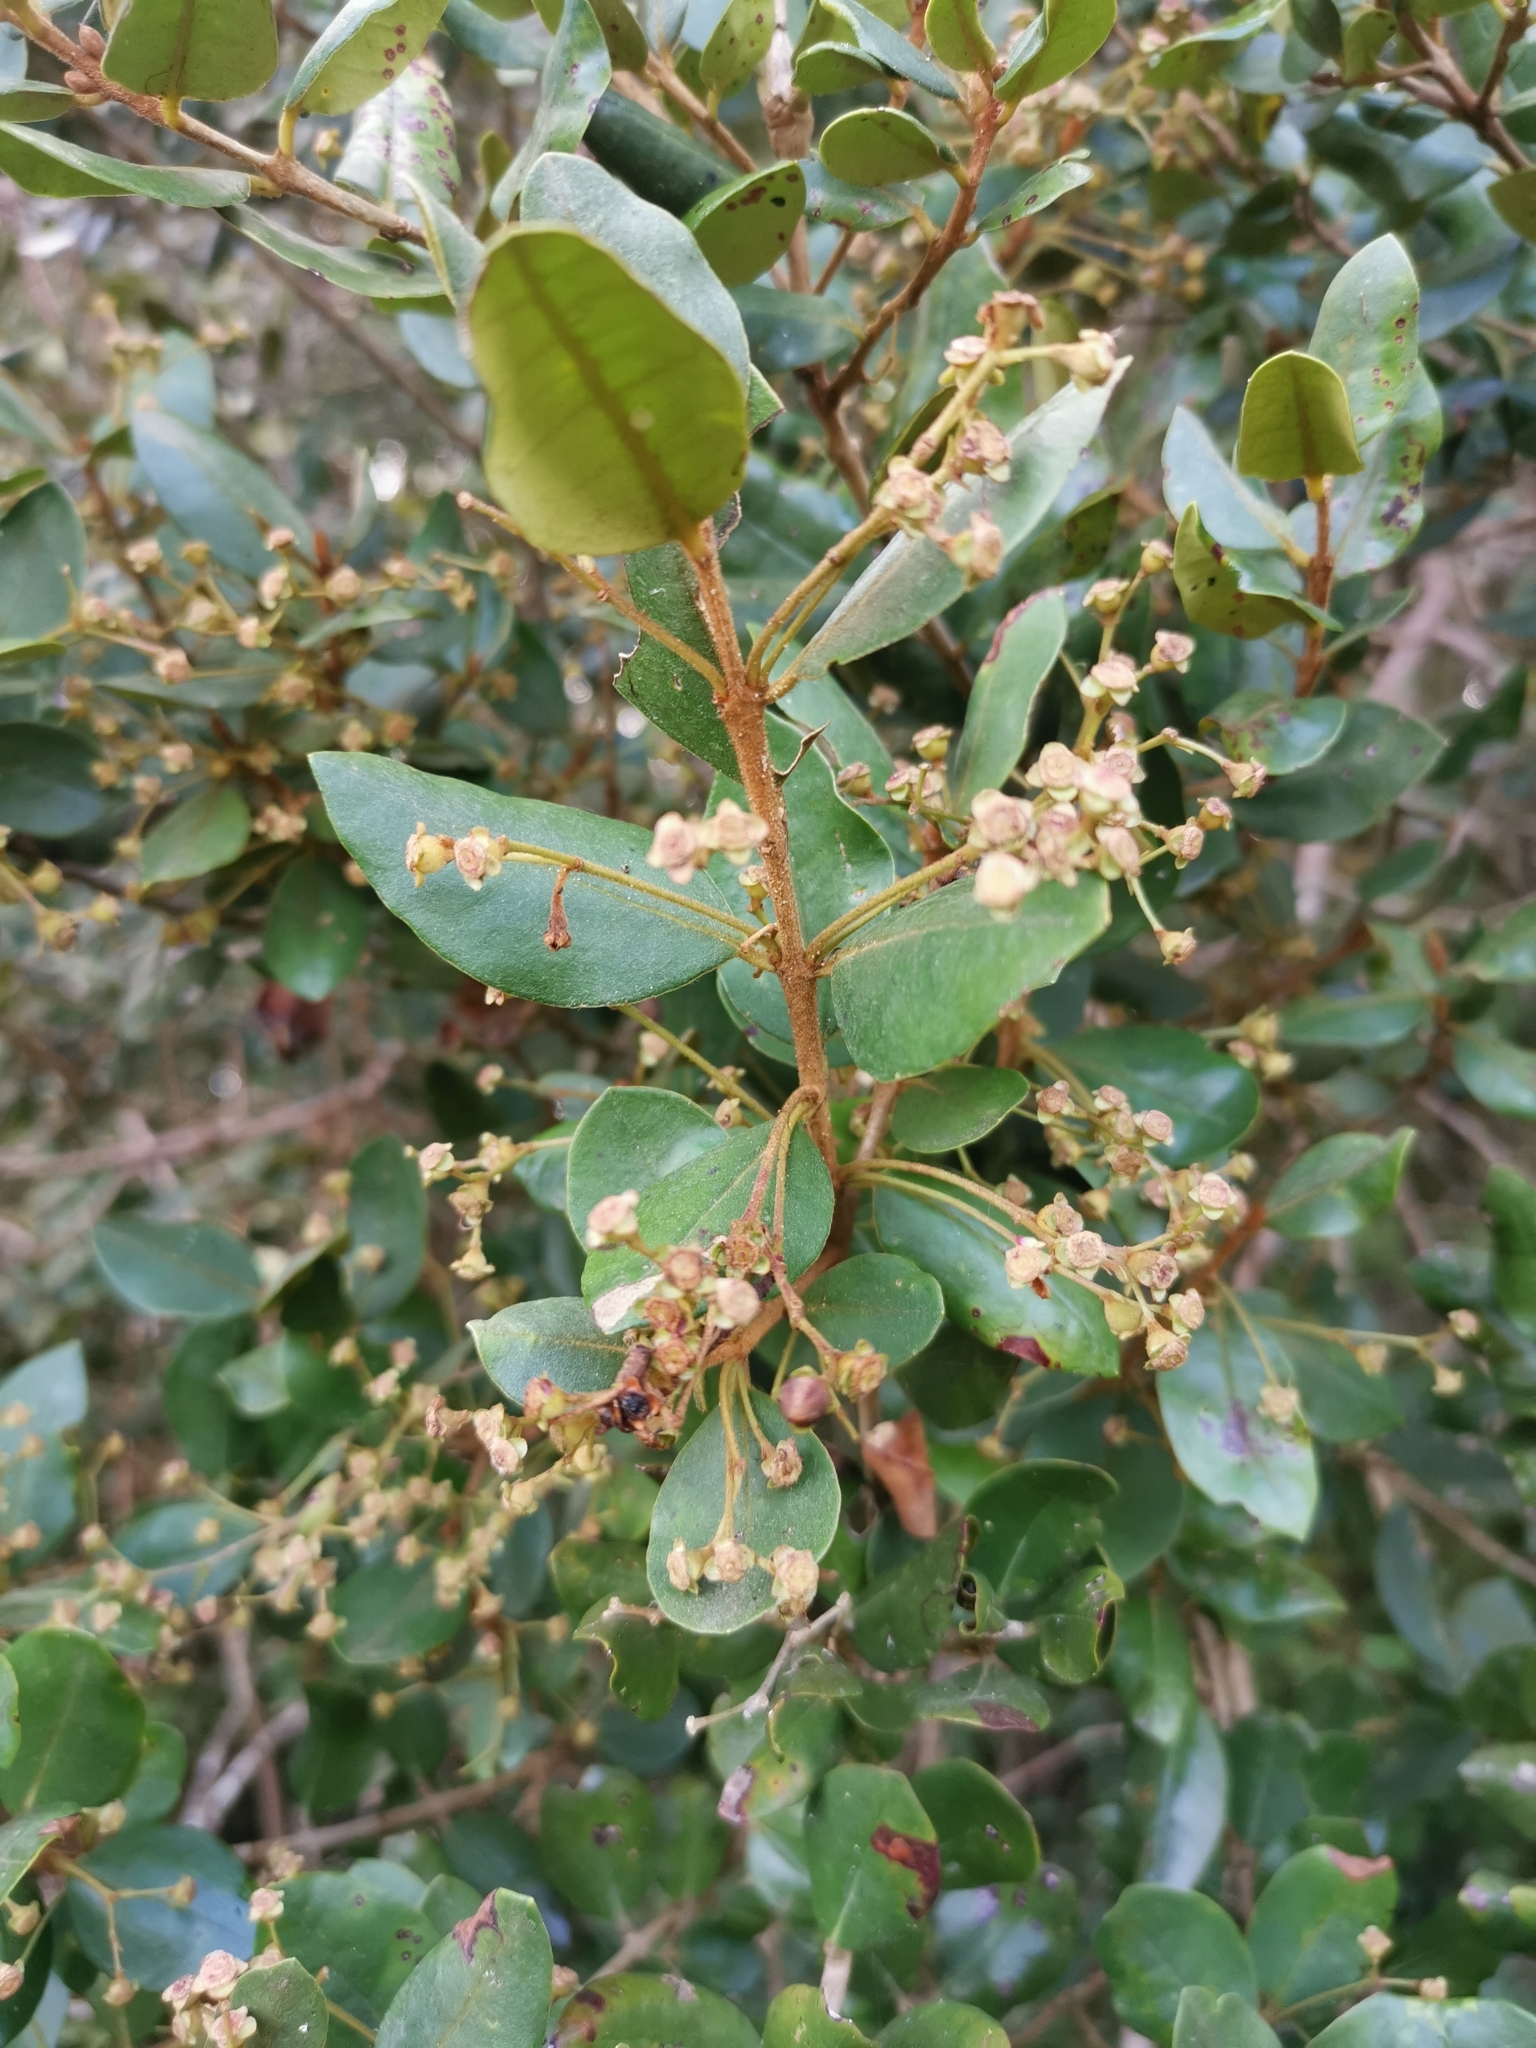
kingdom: Plantae
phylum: Tracheophyta
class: Magnoliopsida
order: Myrtales
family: Myrtaceae
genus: Myrceugenia
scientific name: Myrceugenia exsucca
